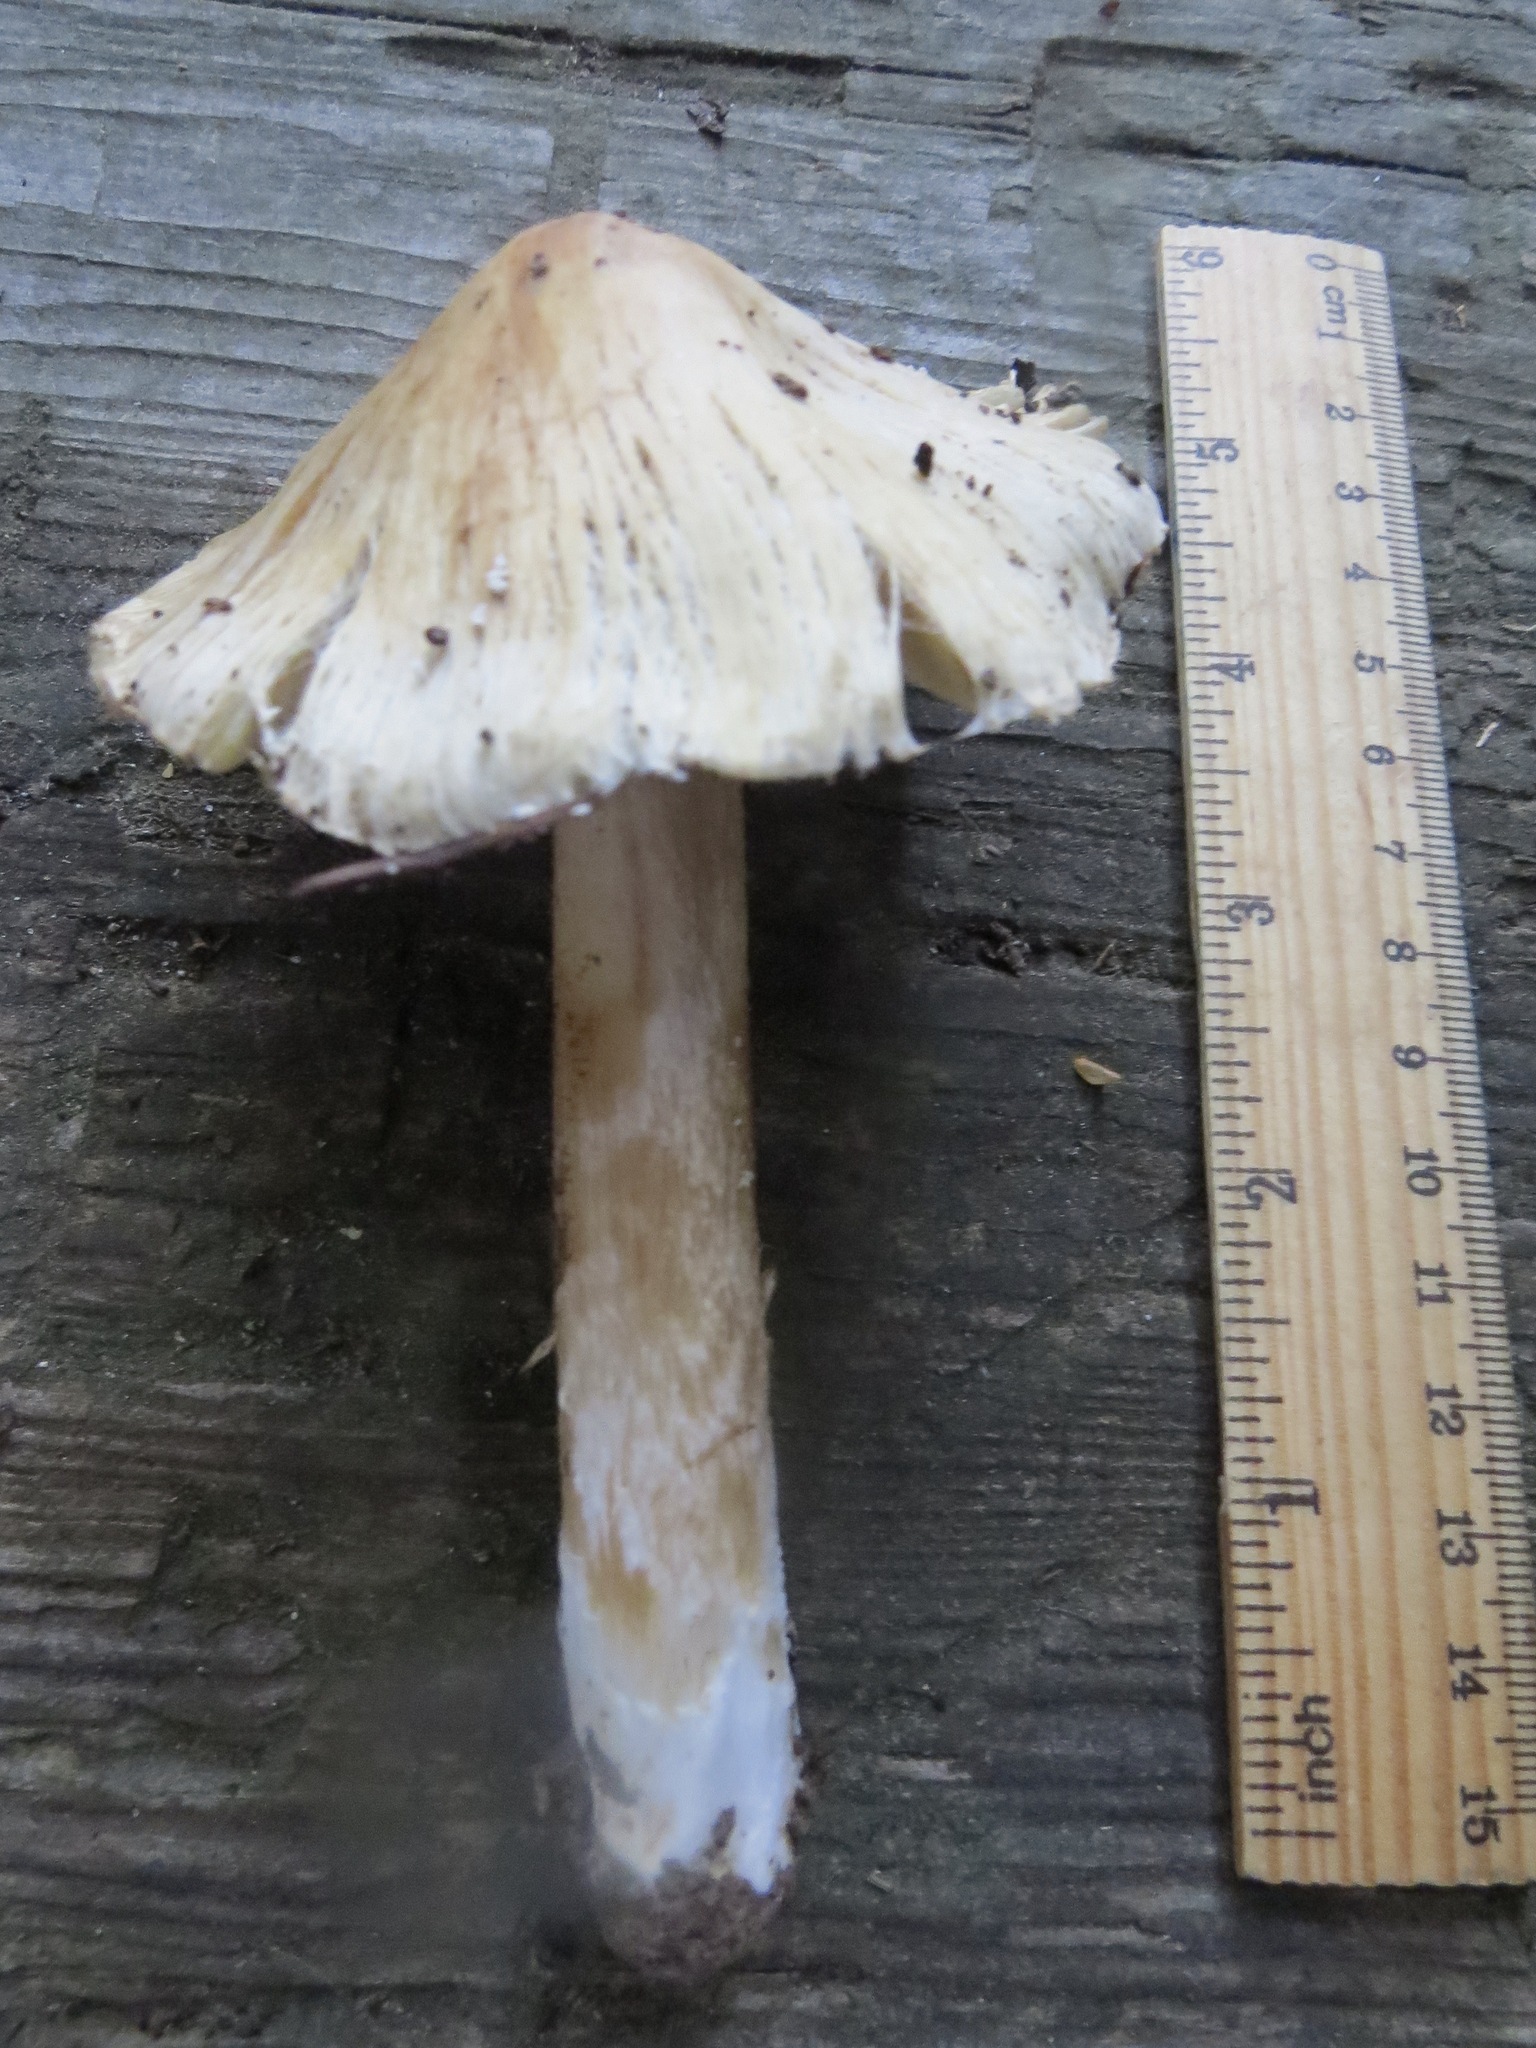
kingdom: Fungi
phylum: Basidiomycota
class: Agaricomycetes
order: Agaricales
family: Inocybaceae
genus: Pseudosperma
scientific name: Pseudosperma sororium
